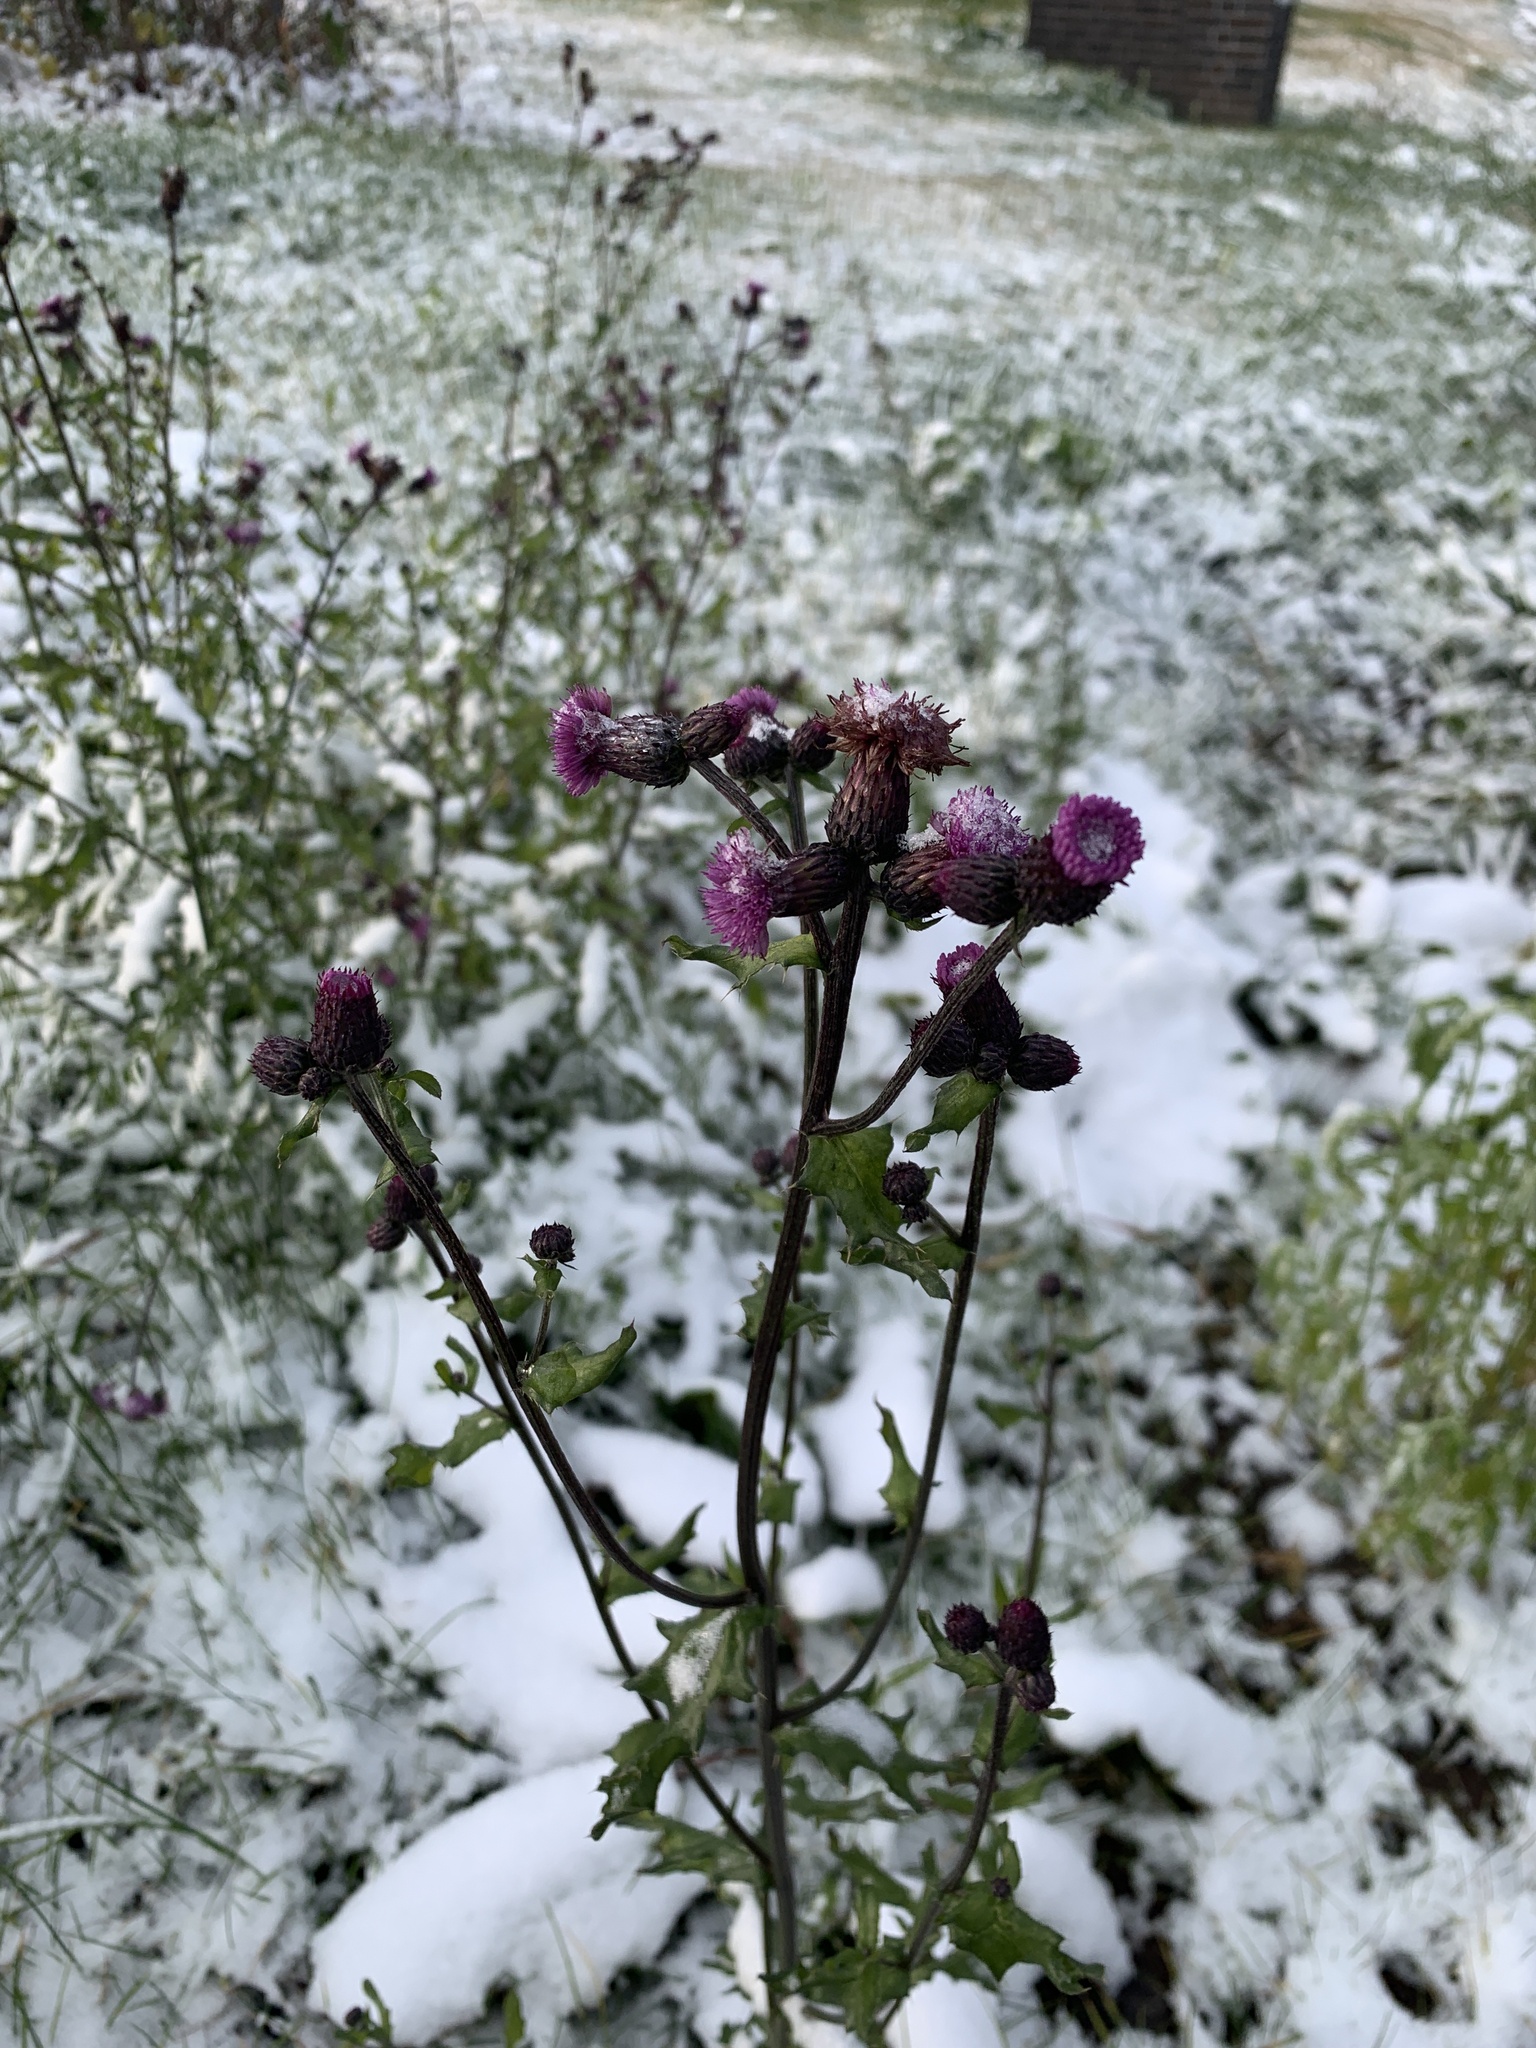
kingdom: Plantae
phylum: Tracheophyta
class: Magnoliopsida
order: Asterales
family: Asteraceae
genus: Cirsium
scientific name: Cirsium arvense
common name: Creeping thistle
